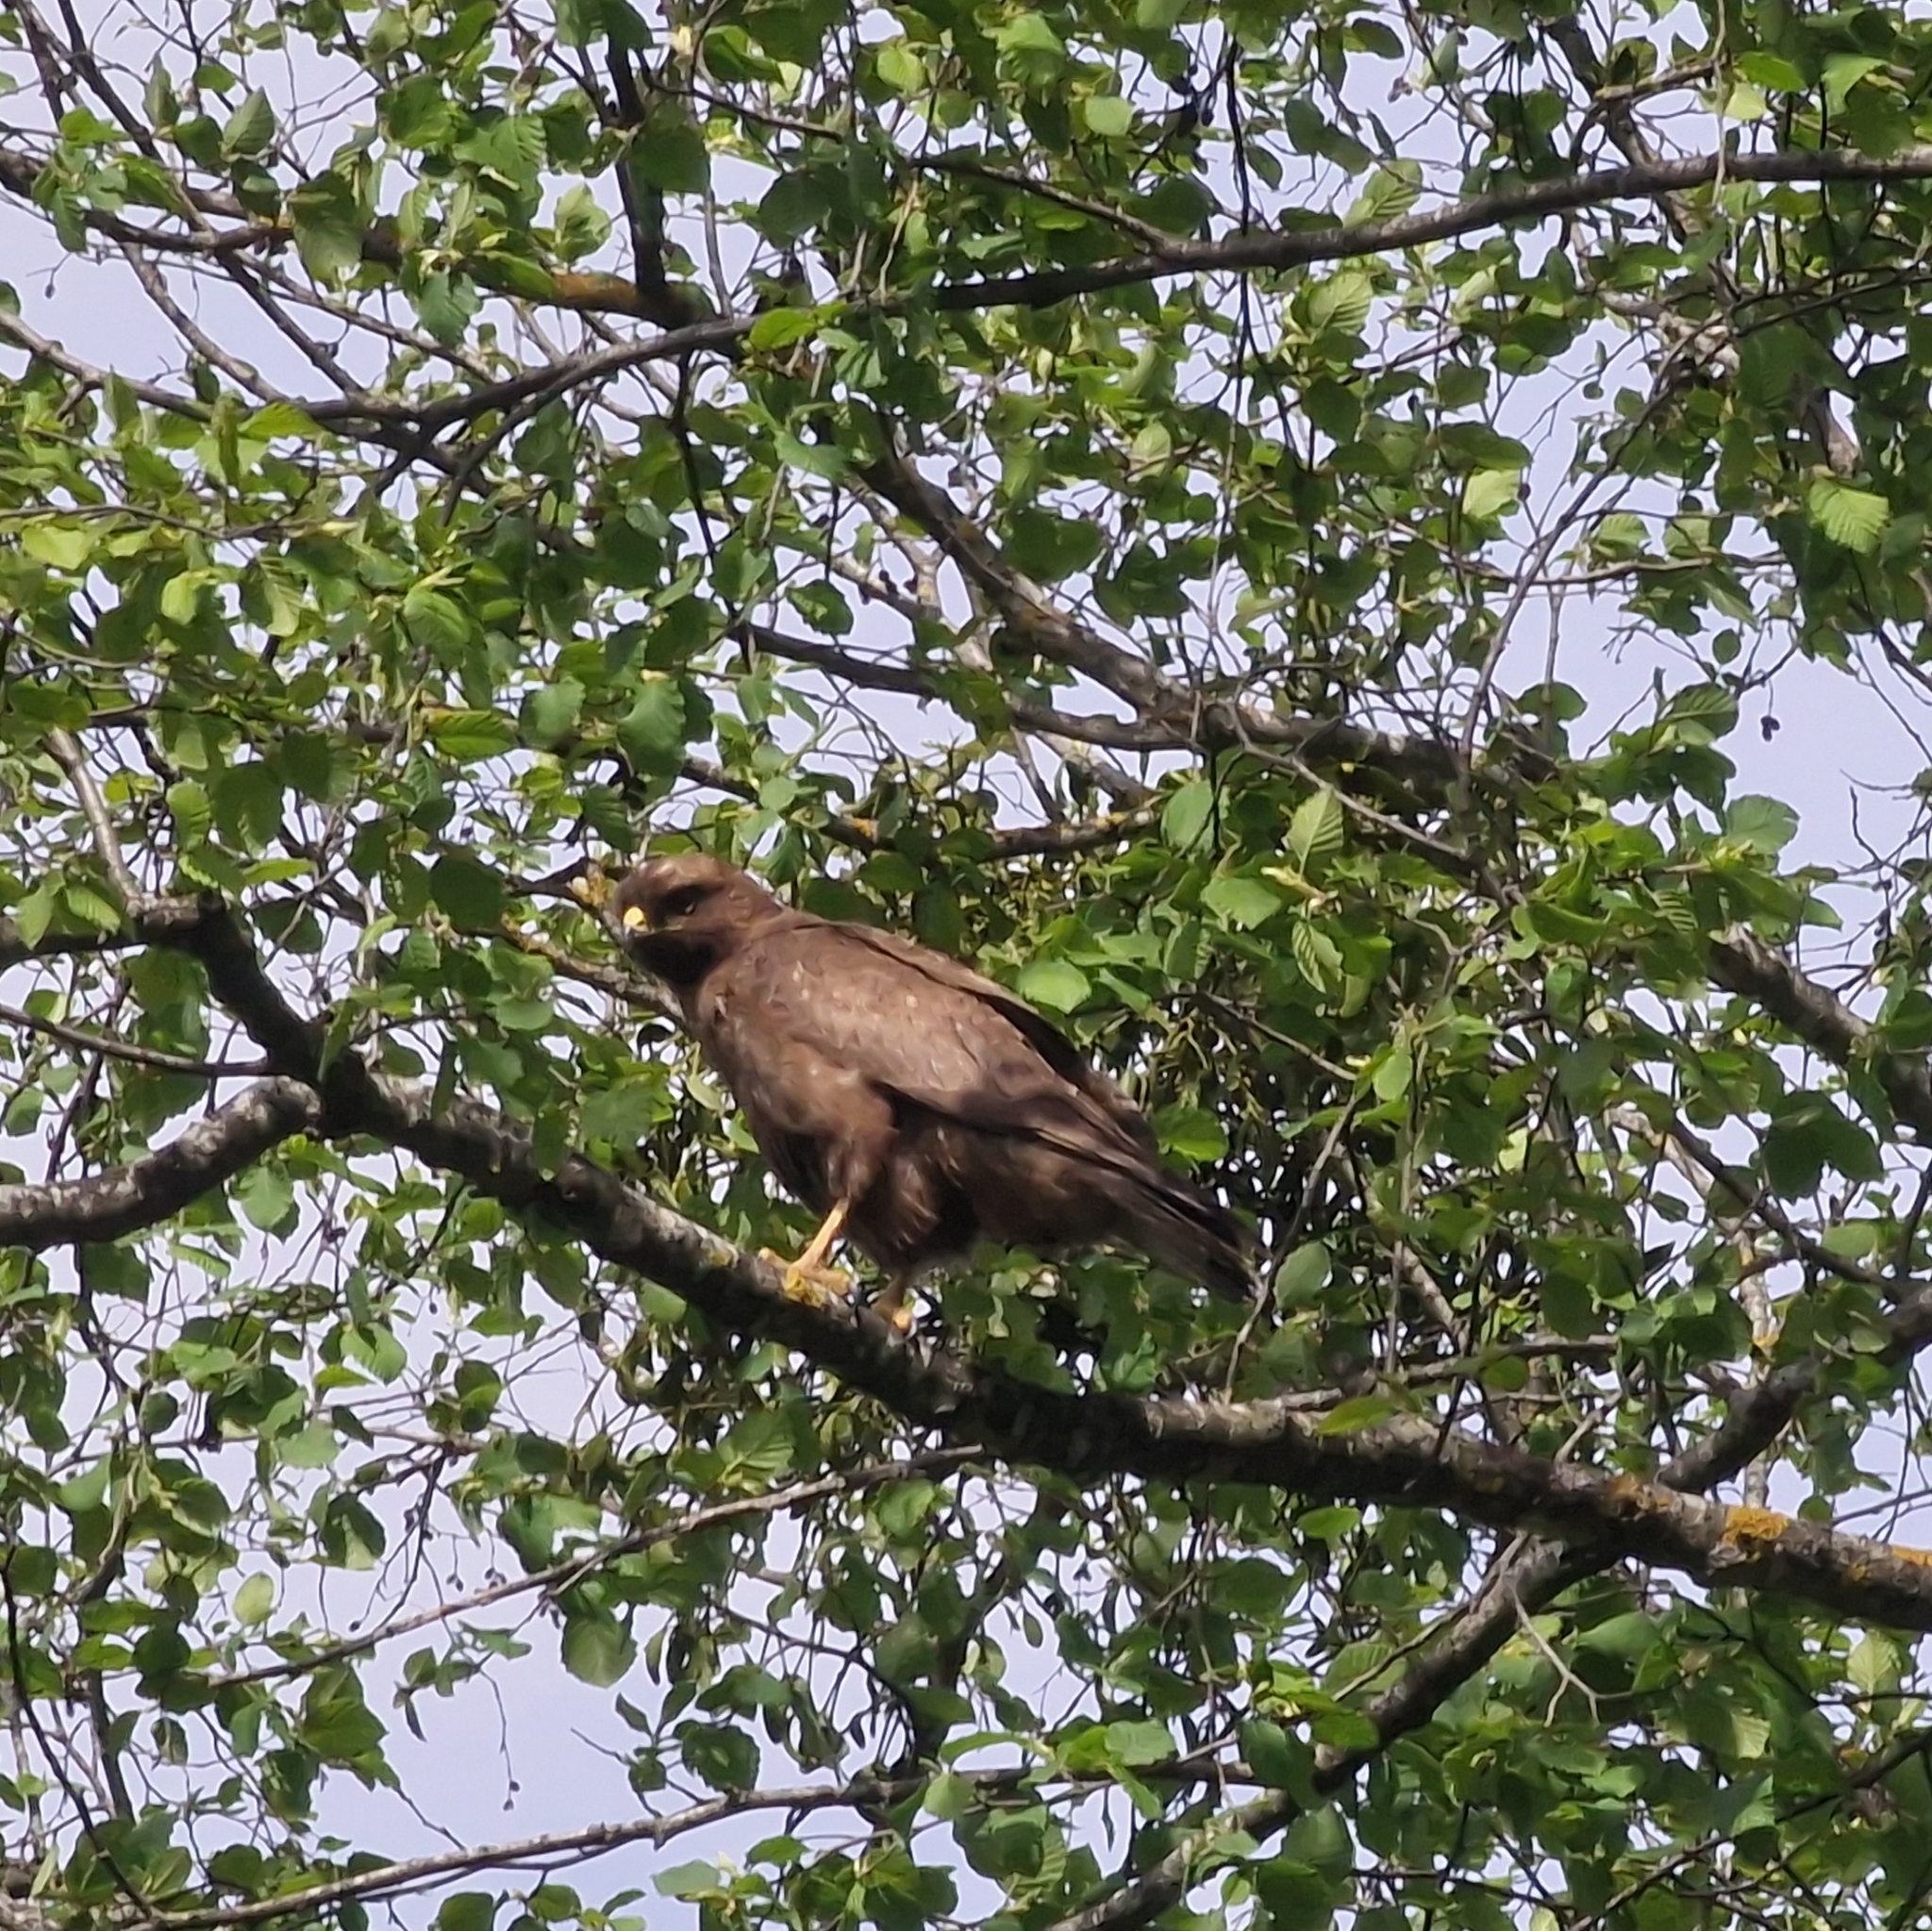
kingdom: Animalia
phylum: Chordata
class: Aves
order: Accipitriformes
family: Accipitridae
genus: Buteo
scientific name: Buteo buteo
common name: Common buzzard
